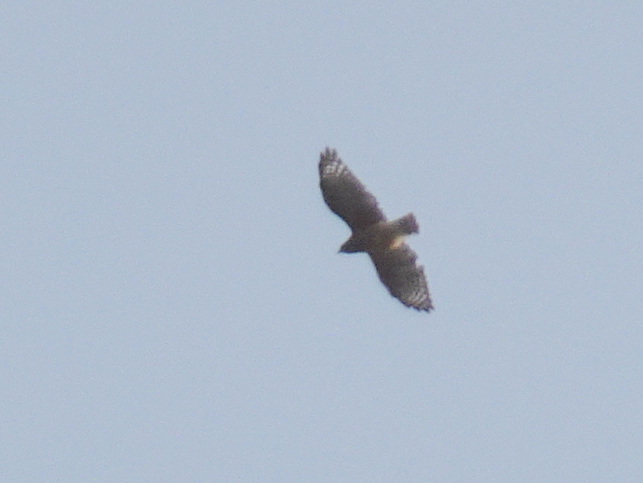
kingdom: Animalia
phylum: Chordata
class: Aves
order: Accipitriformes
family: Accipitridae
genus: Buteo
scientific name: Buteo lineatus
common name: Red-shouldered hawk
